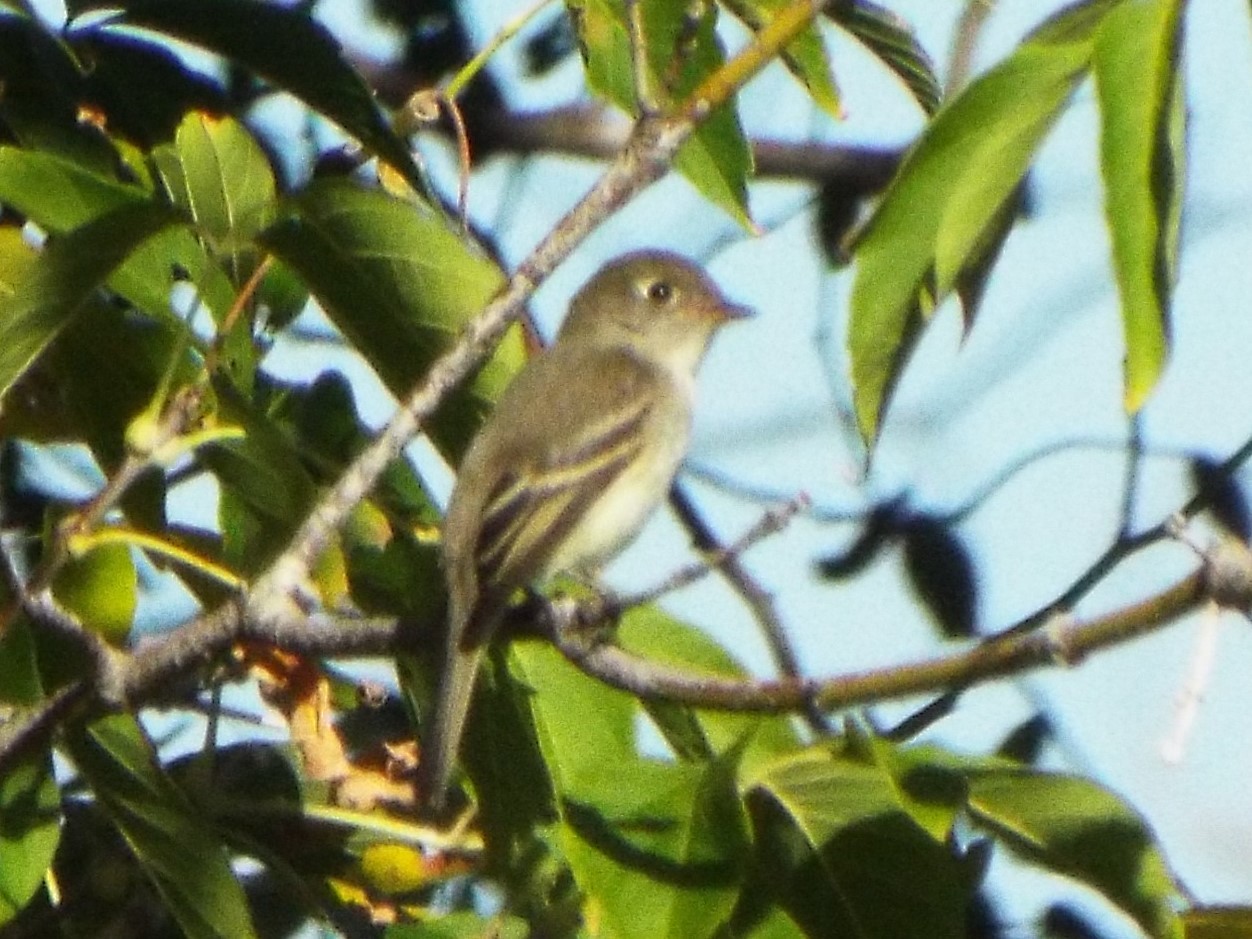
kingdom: Animalia
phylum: Chordata
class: Aves
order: Passeriformes
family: Tyrannidae
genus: Empidonax
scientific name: Empidonax minimus
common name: Least flycatcher
